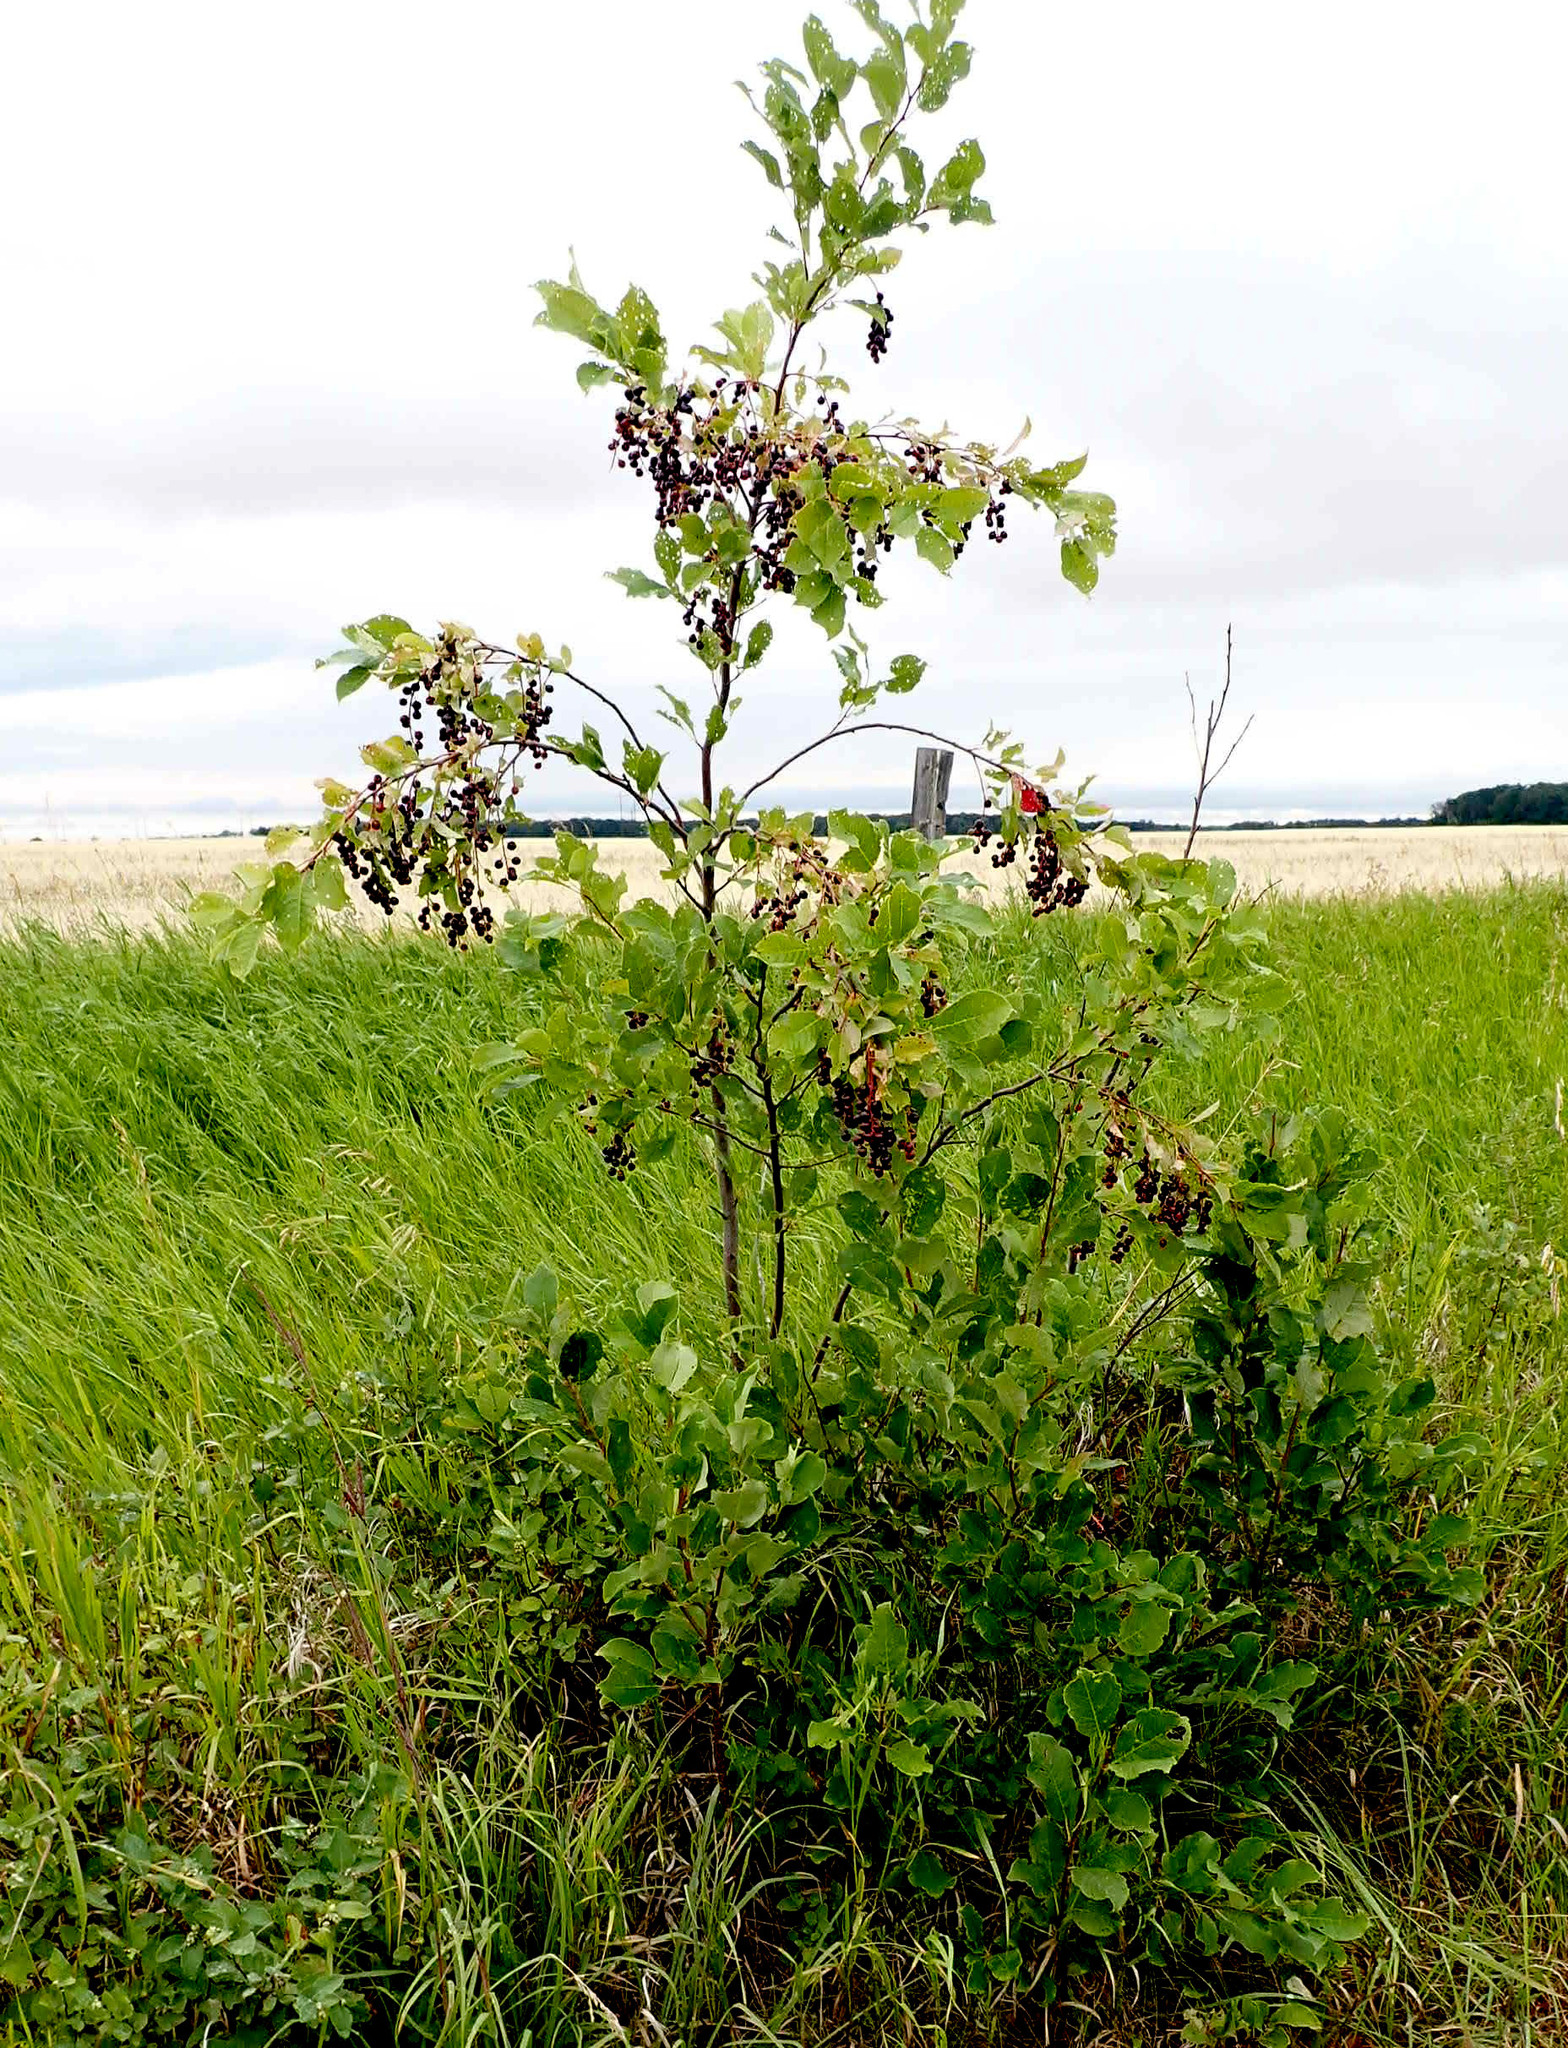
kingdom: Plantae
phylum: Tracheophyta
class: Magnoliopsida
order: Rosales
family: Rosaceae
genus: Prunus
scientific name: Prunus virginiana
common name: Chokecherry
